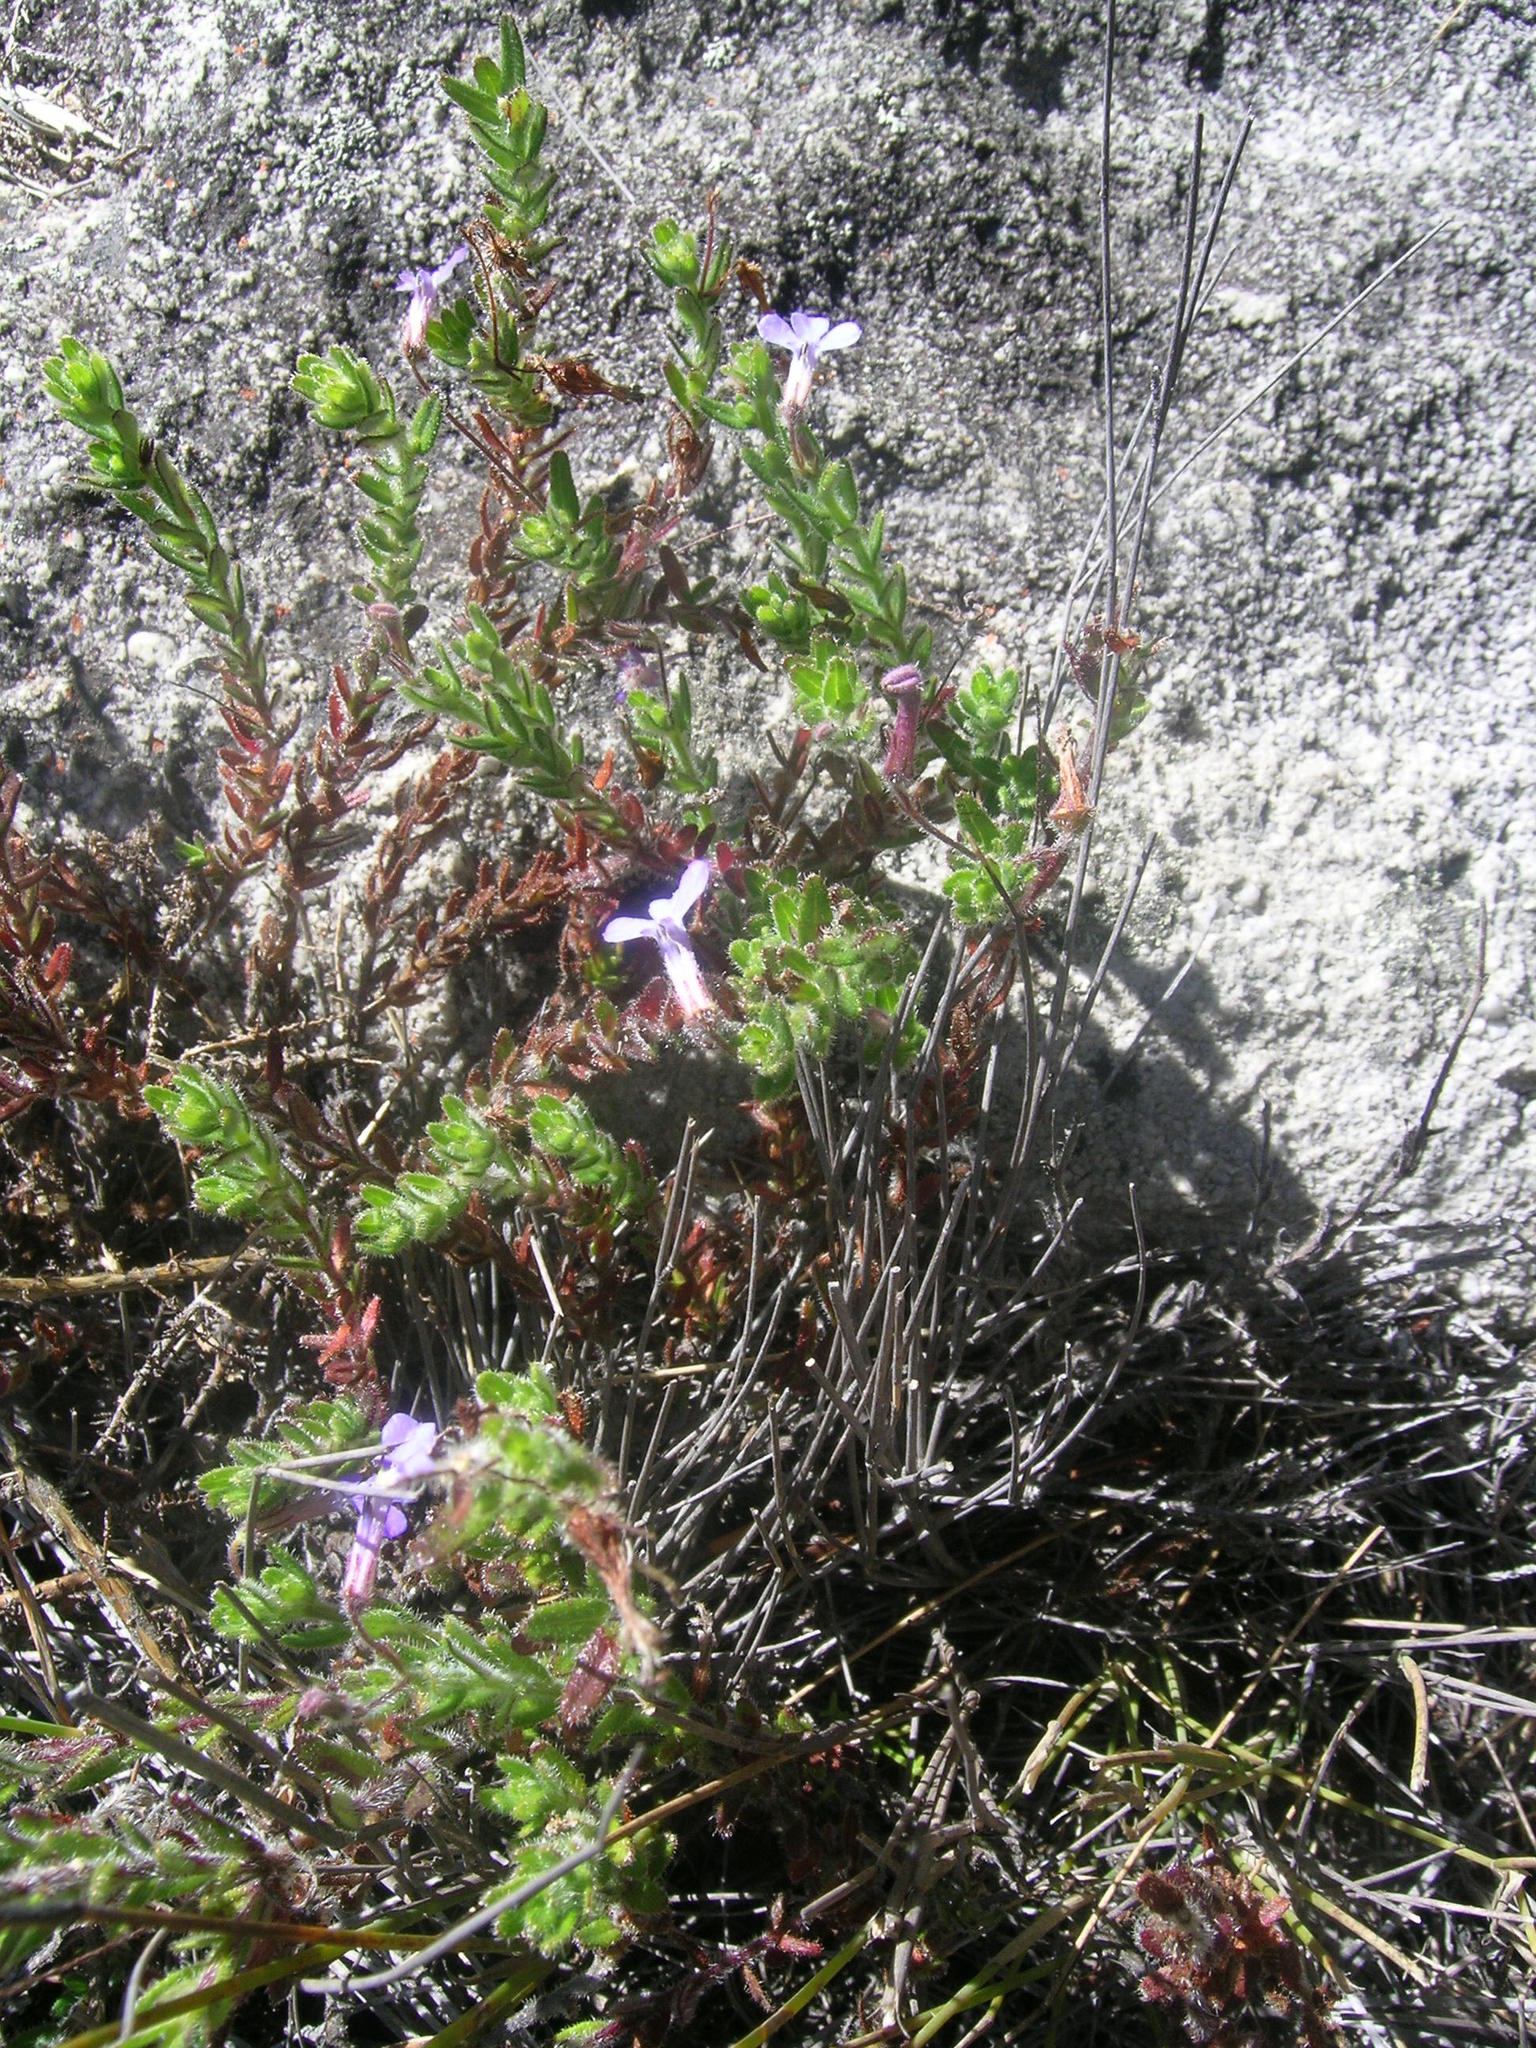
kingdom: Plantae
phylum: Tracheophyta
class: Magnoliopsida
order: Asterales
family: Campanulaceae
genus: Lobelia
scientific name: Lobelia neglecta
